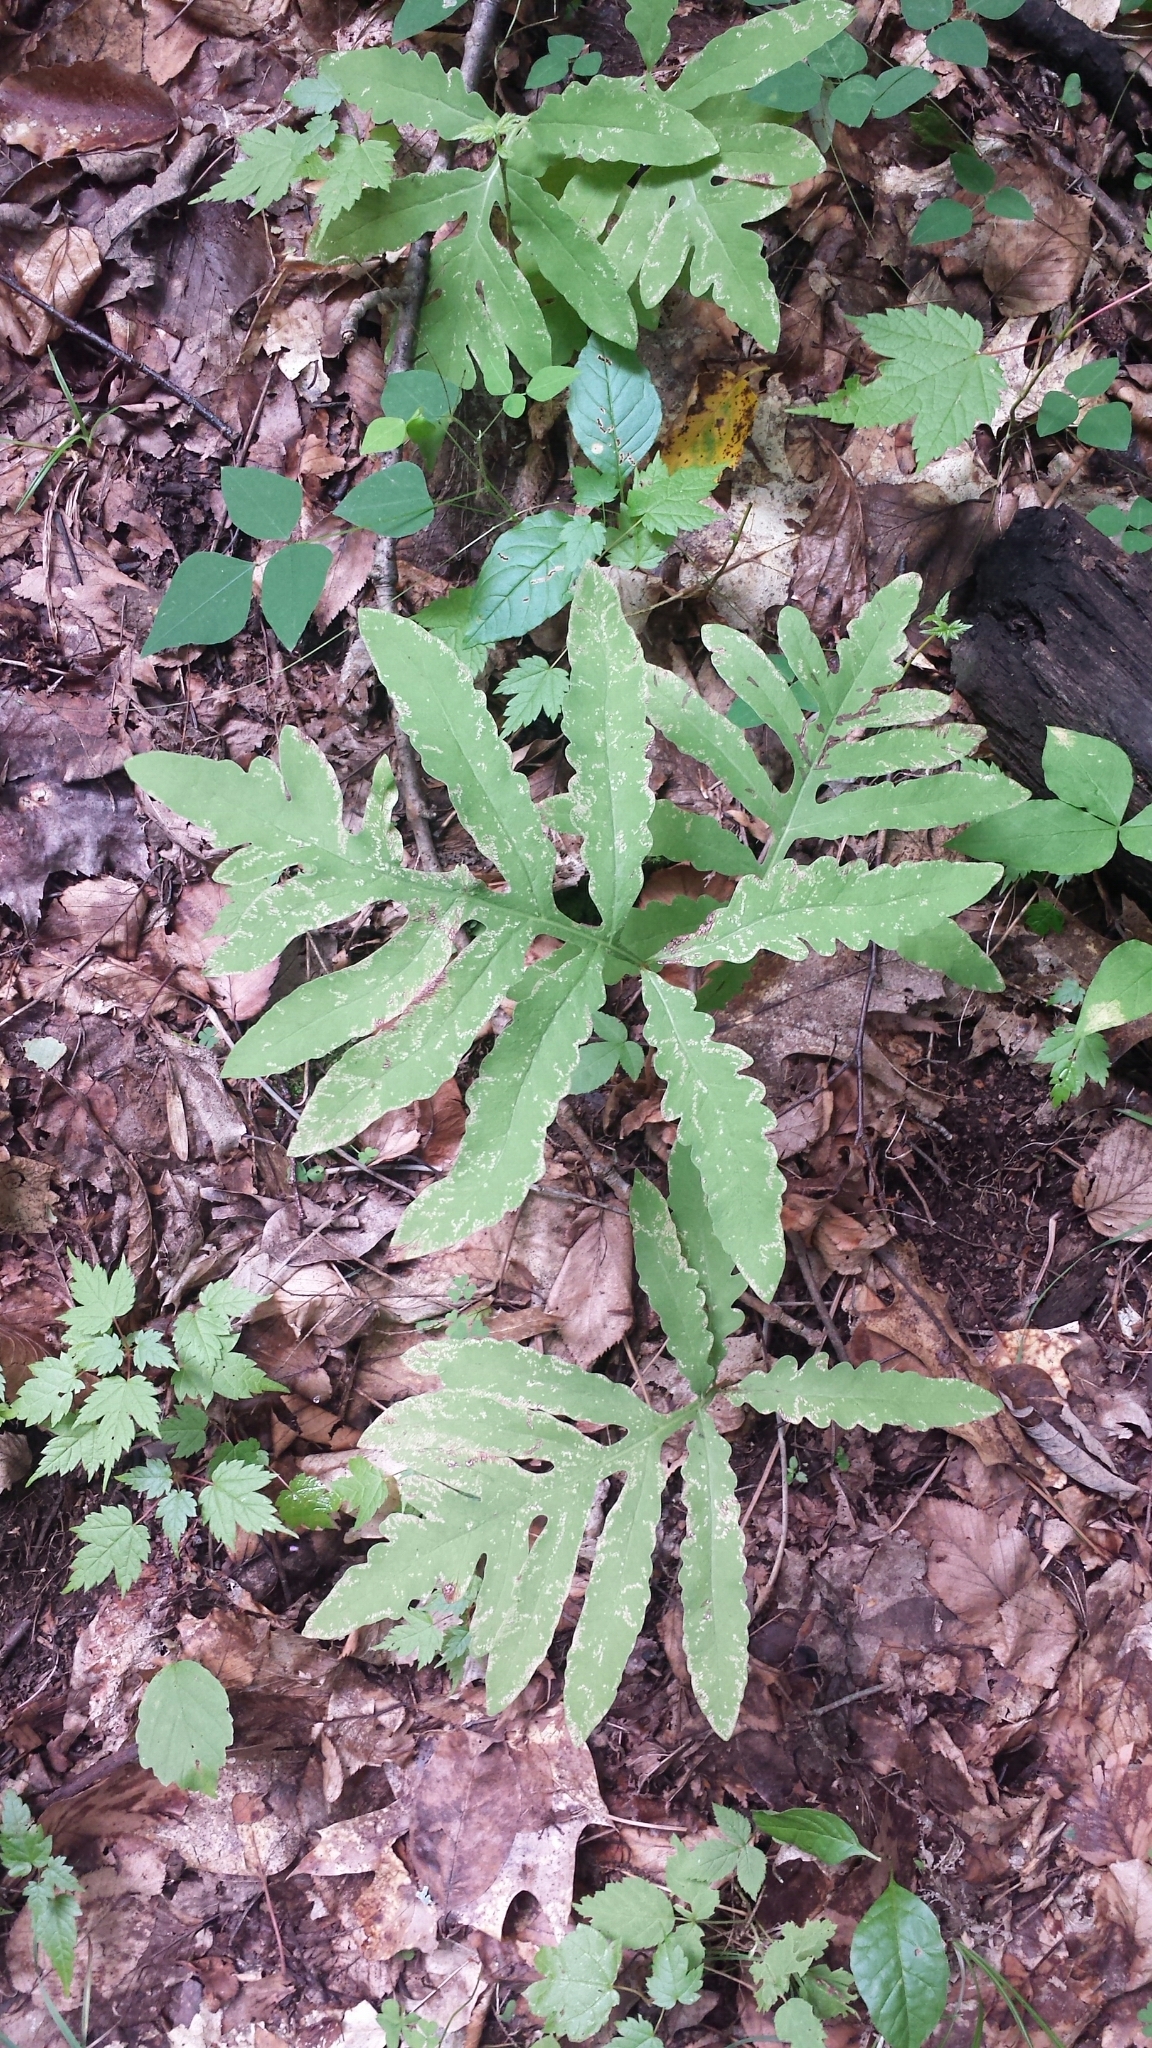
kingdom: Plantae
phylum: Tracheophyta
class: Polypodiopsida
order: Polypodiales
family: Onocleaceae
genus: Onoclea
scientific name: Onoclea sensibilis
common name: Sensitive fern
